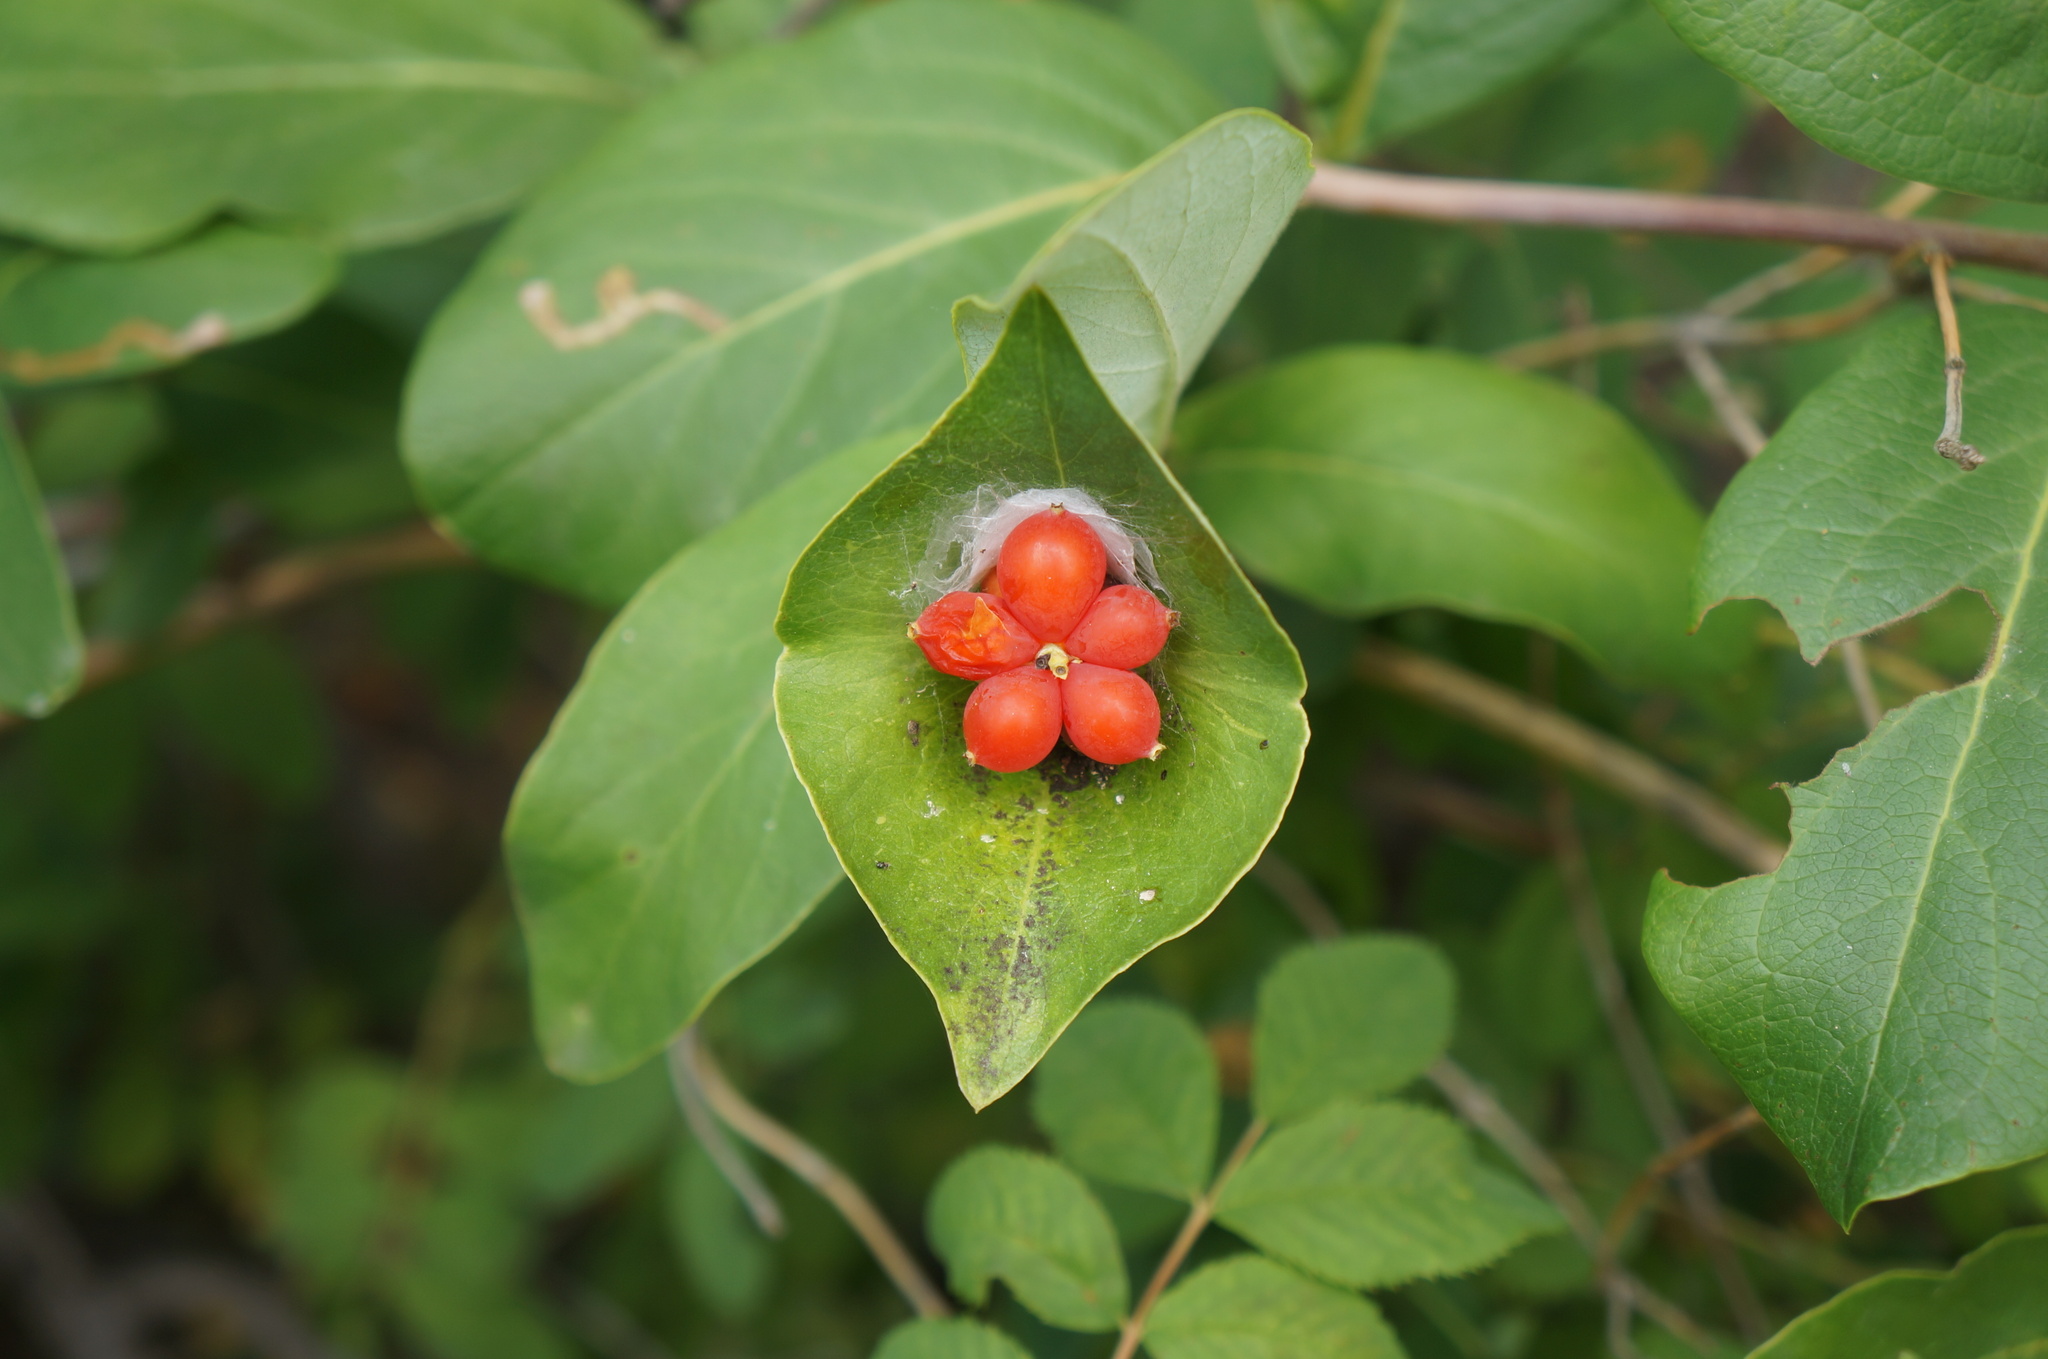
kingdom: Plantae
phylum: Tracheophyta
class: Magnoliopsida
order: Dipsacales
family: Caprifoliaceae
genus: Lonicera
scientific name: Lonicera dioica
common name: Limber honeysuckle
